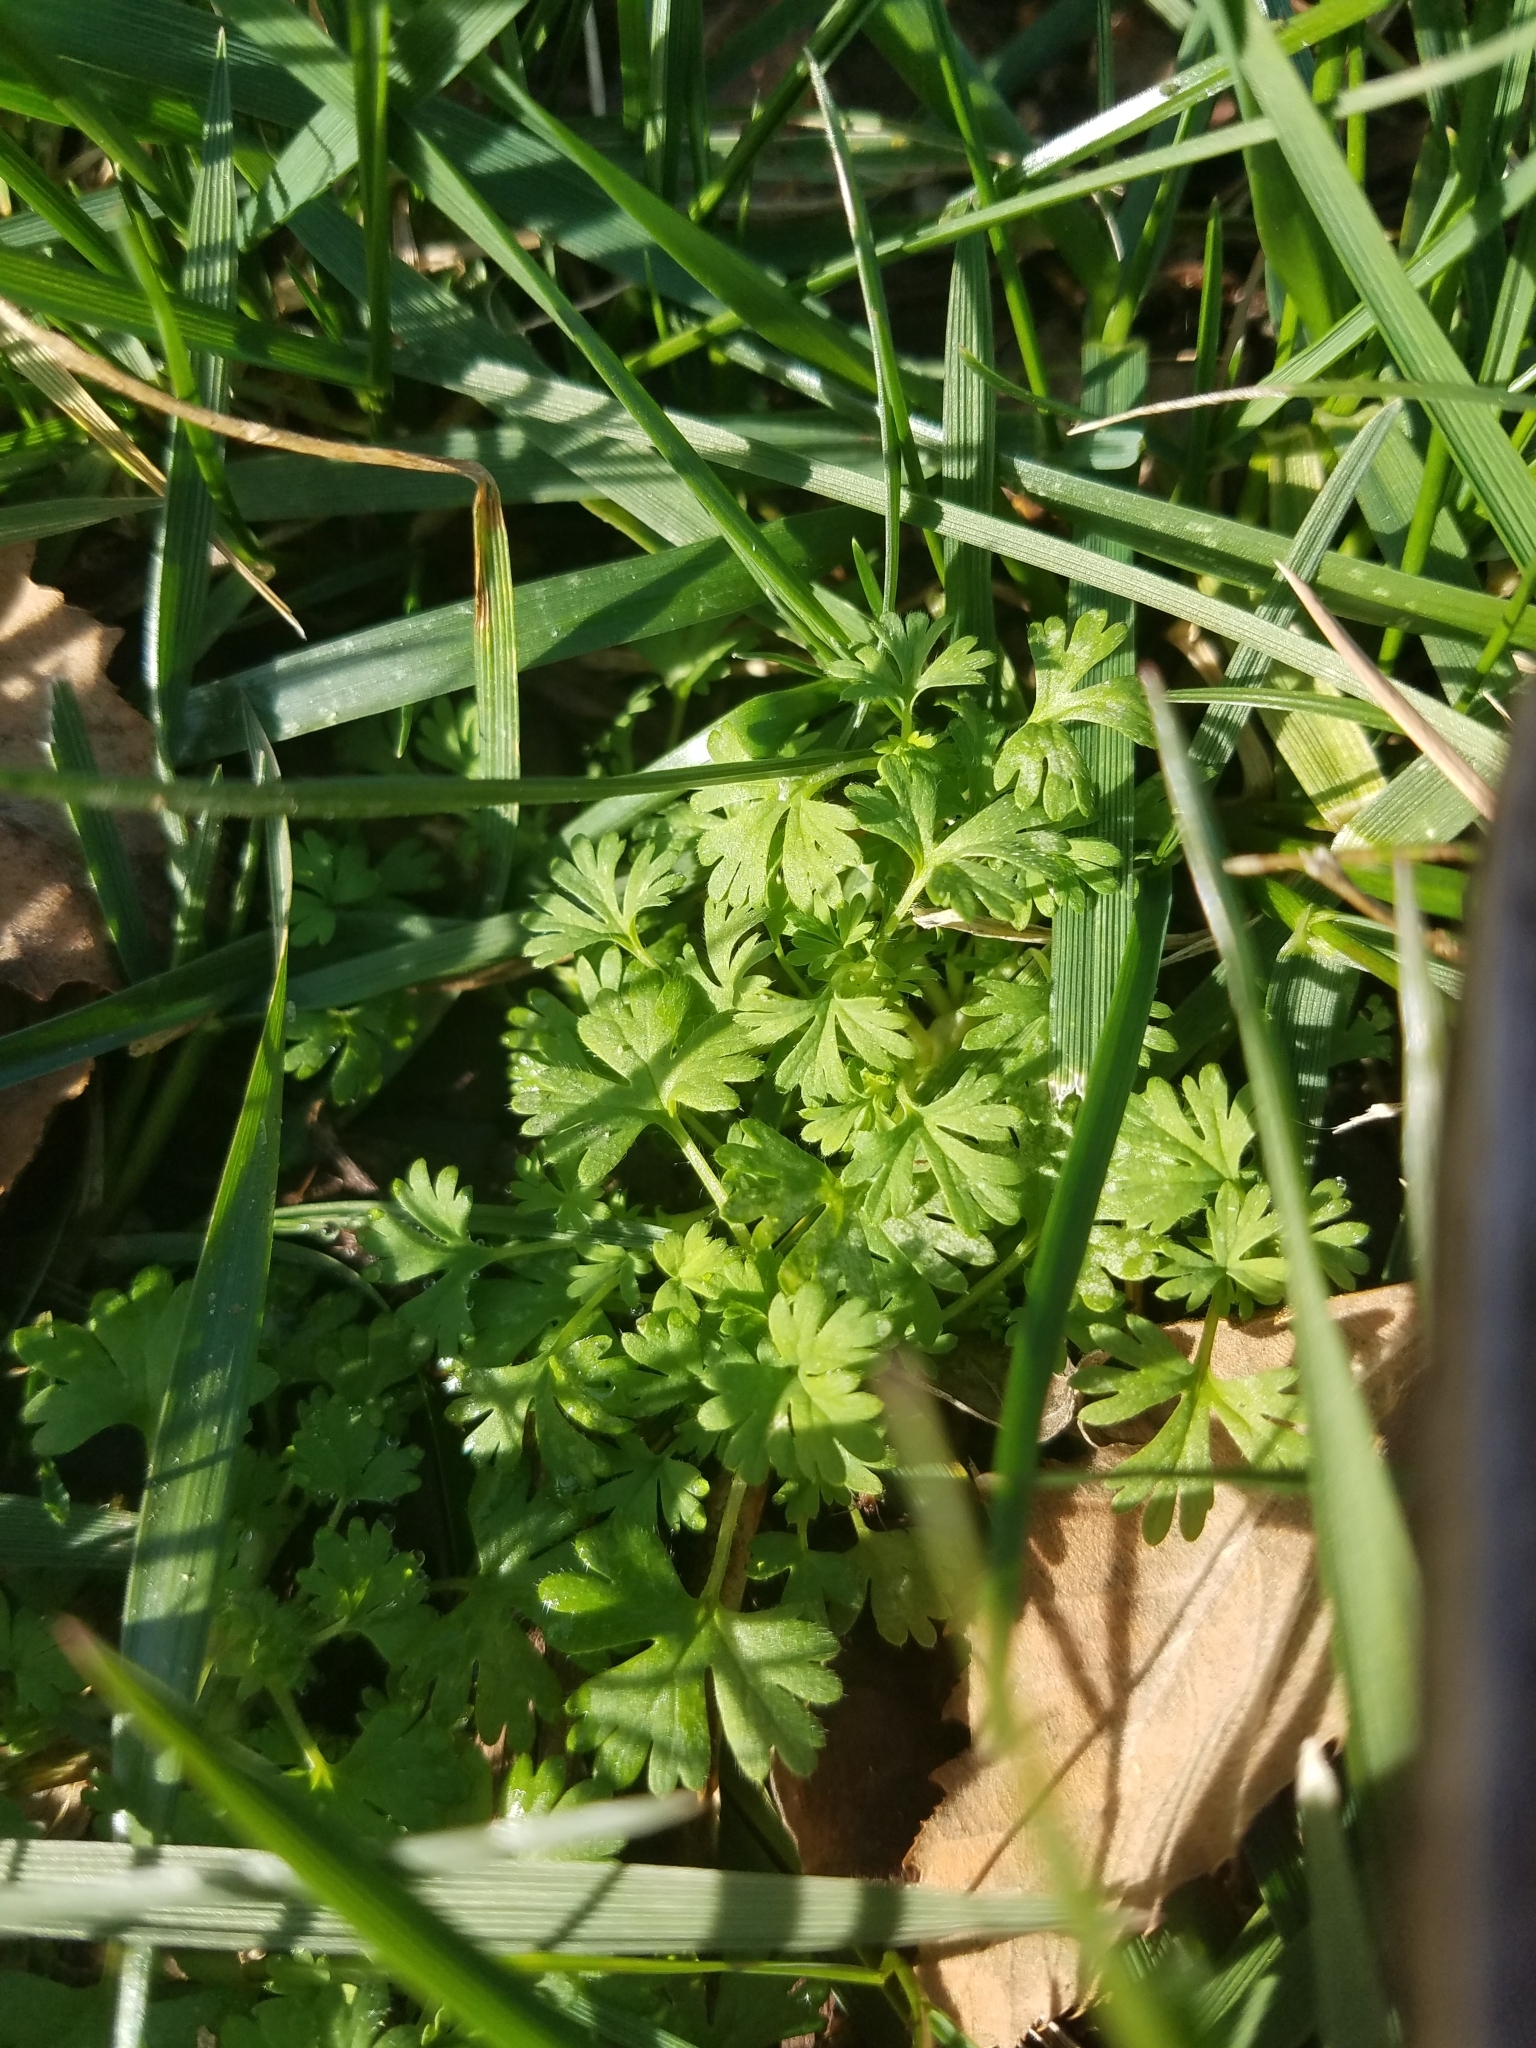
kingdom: Plantae
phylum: Tracheophyta
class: Magnoliopsida
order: Rosales
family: Rosaceae
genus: Aphanes
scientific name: Aphanes australis
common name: Slender parsley-piert
